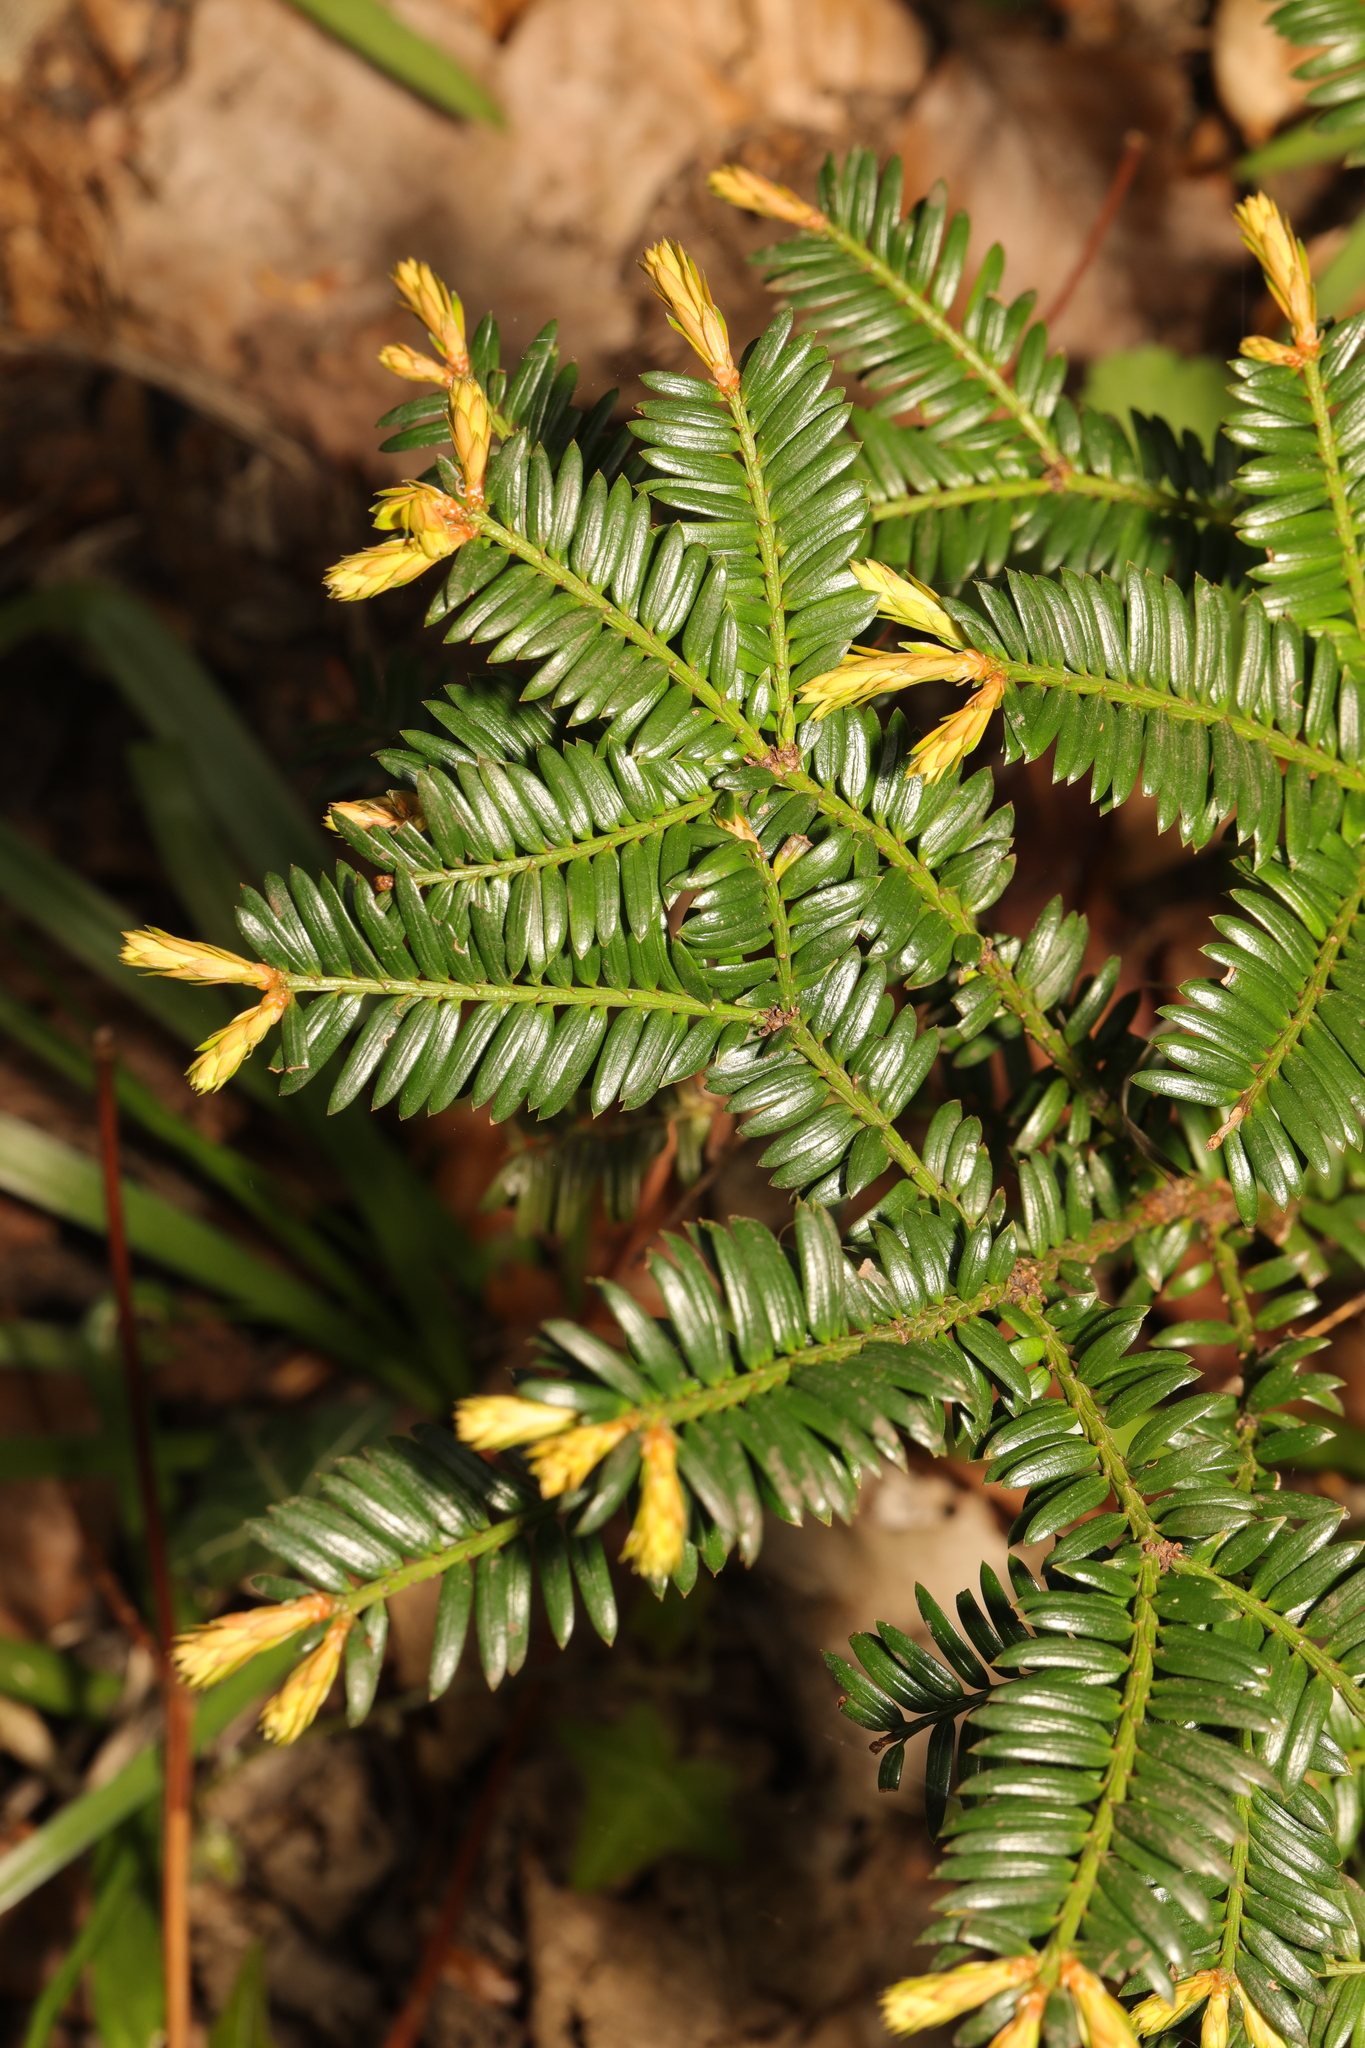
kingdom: Plantae
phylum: Tracheophyta
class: Pinopsida
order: Pinales
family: Taxaceae
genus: Taxus
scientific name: Taxus baccata
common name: Yew
